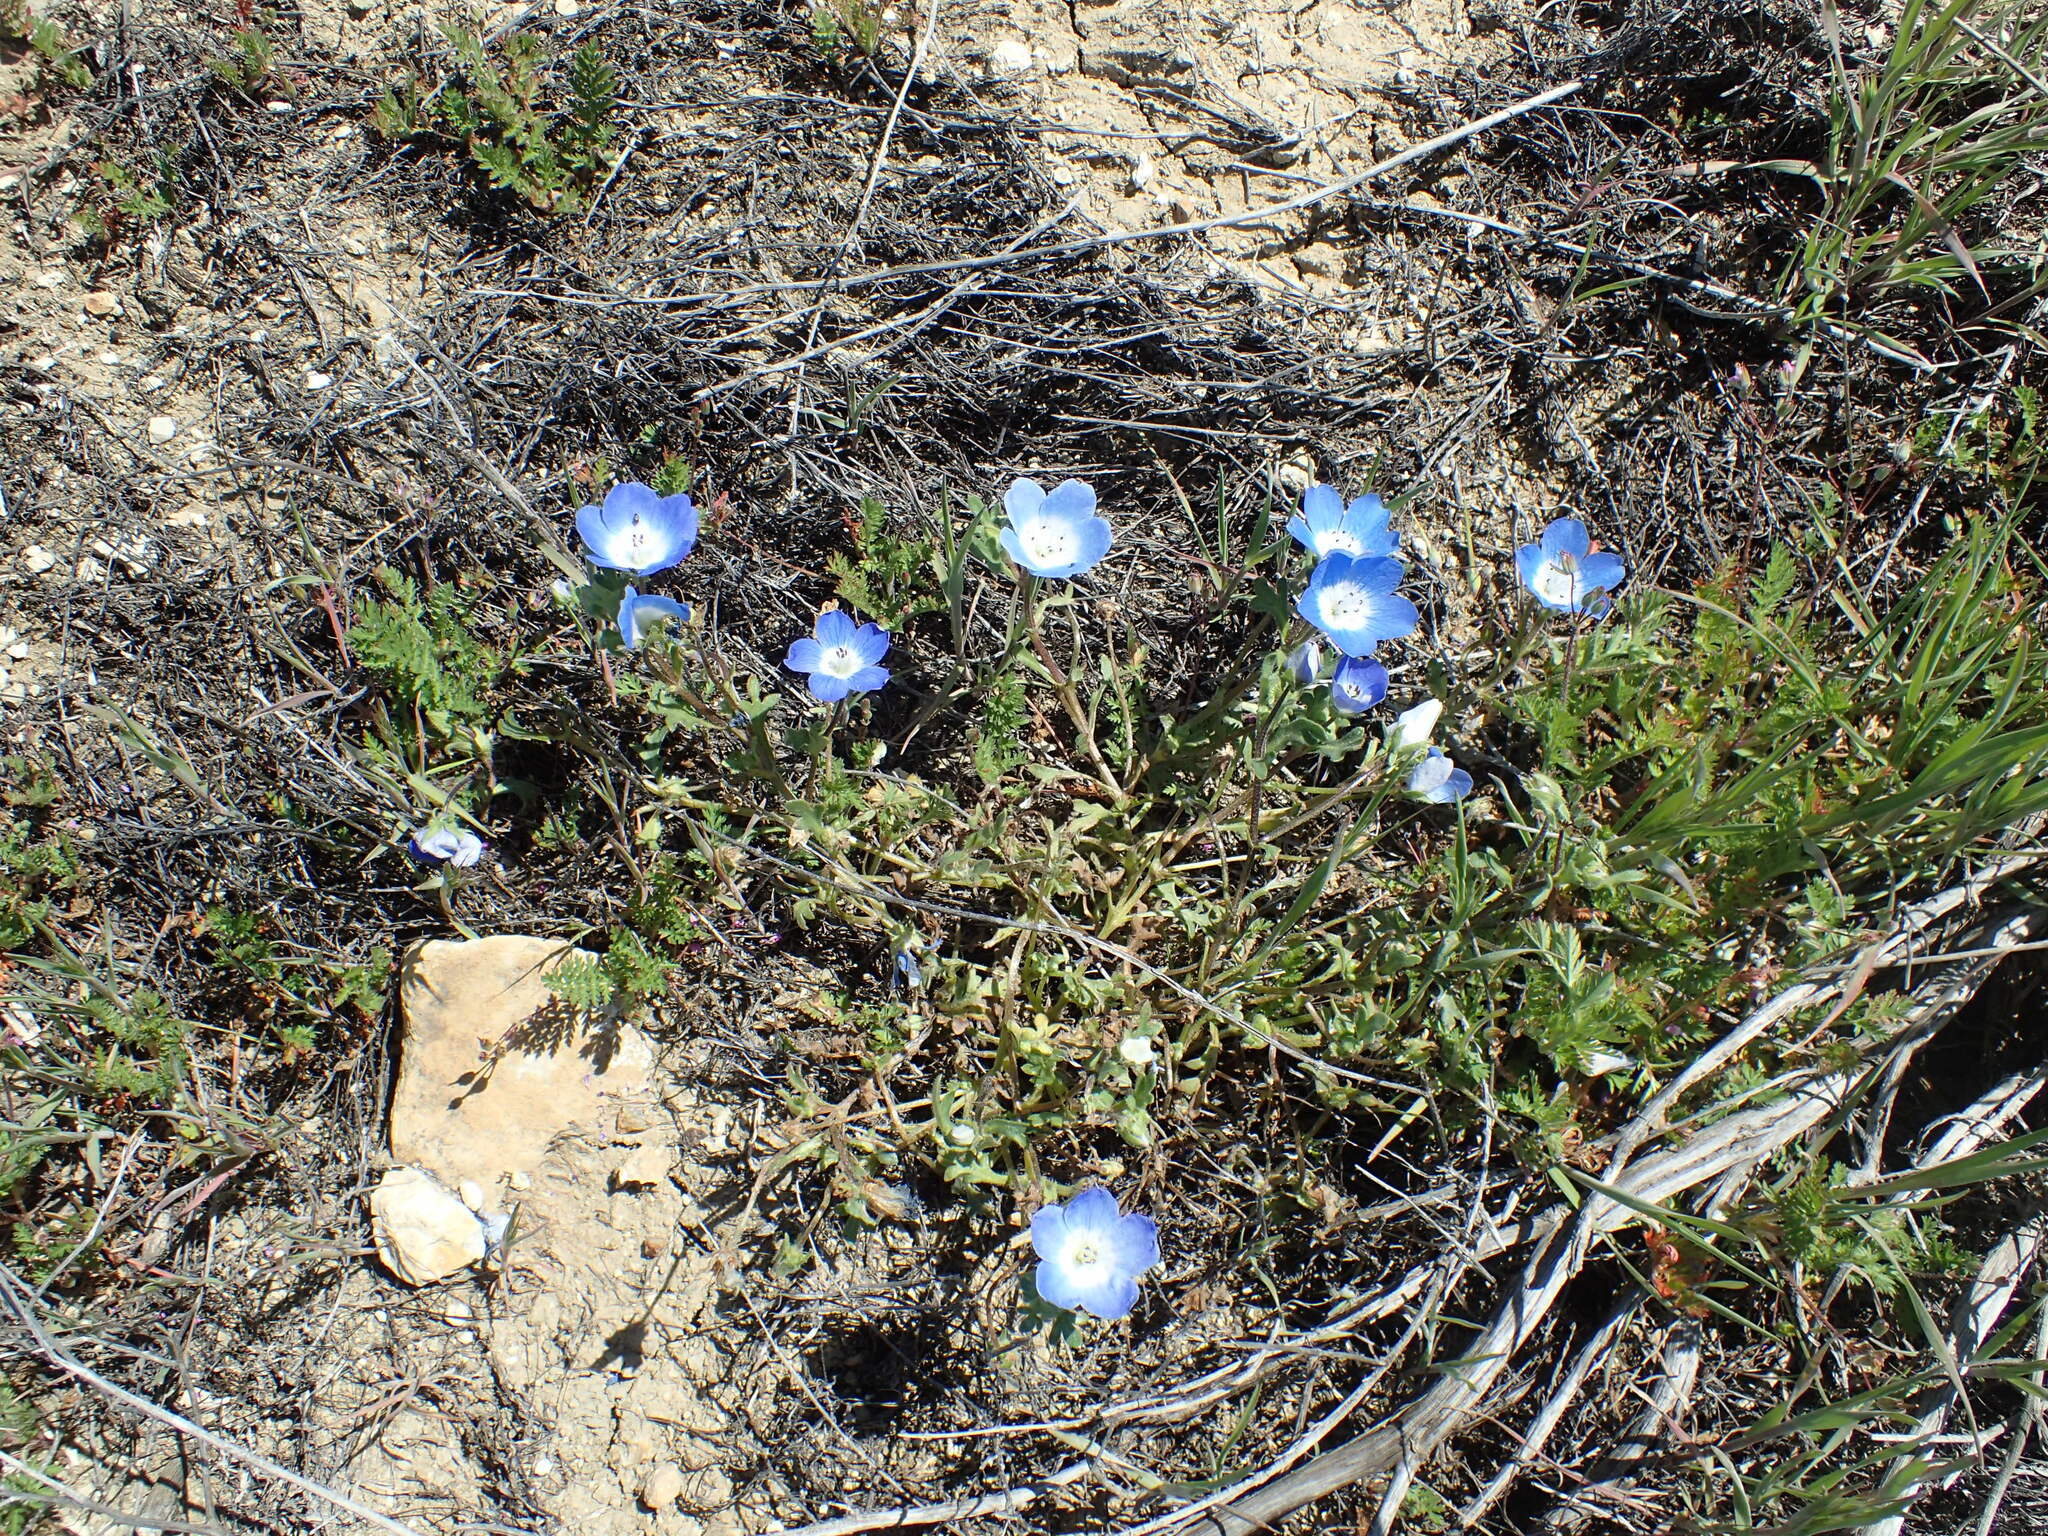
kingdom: Plantae
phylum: Tracheophyta
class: Magnoliopsida
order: Boraginales
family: Hydrophyllaceae
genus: Nemophila
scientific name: Nemophila menziesii
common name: Baby's-blue-eyes
